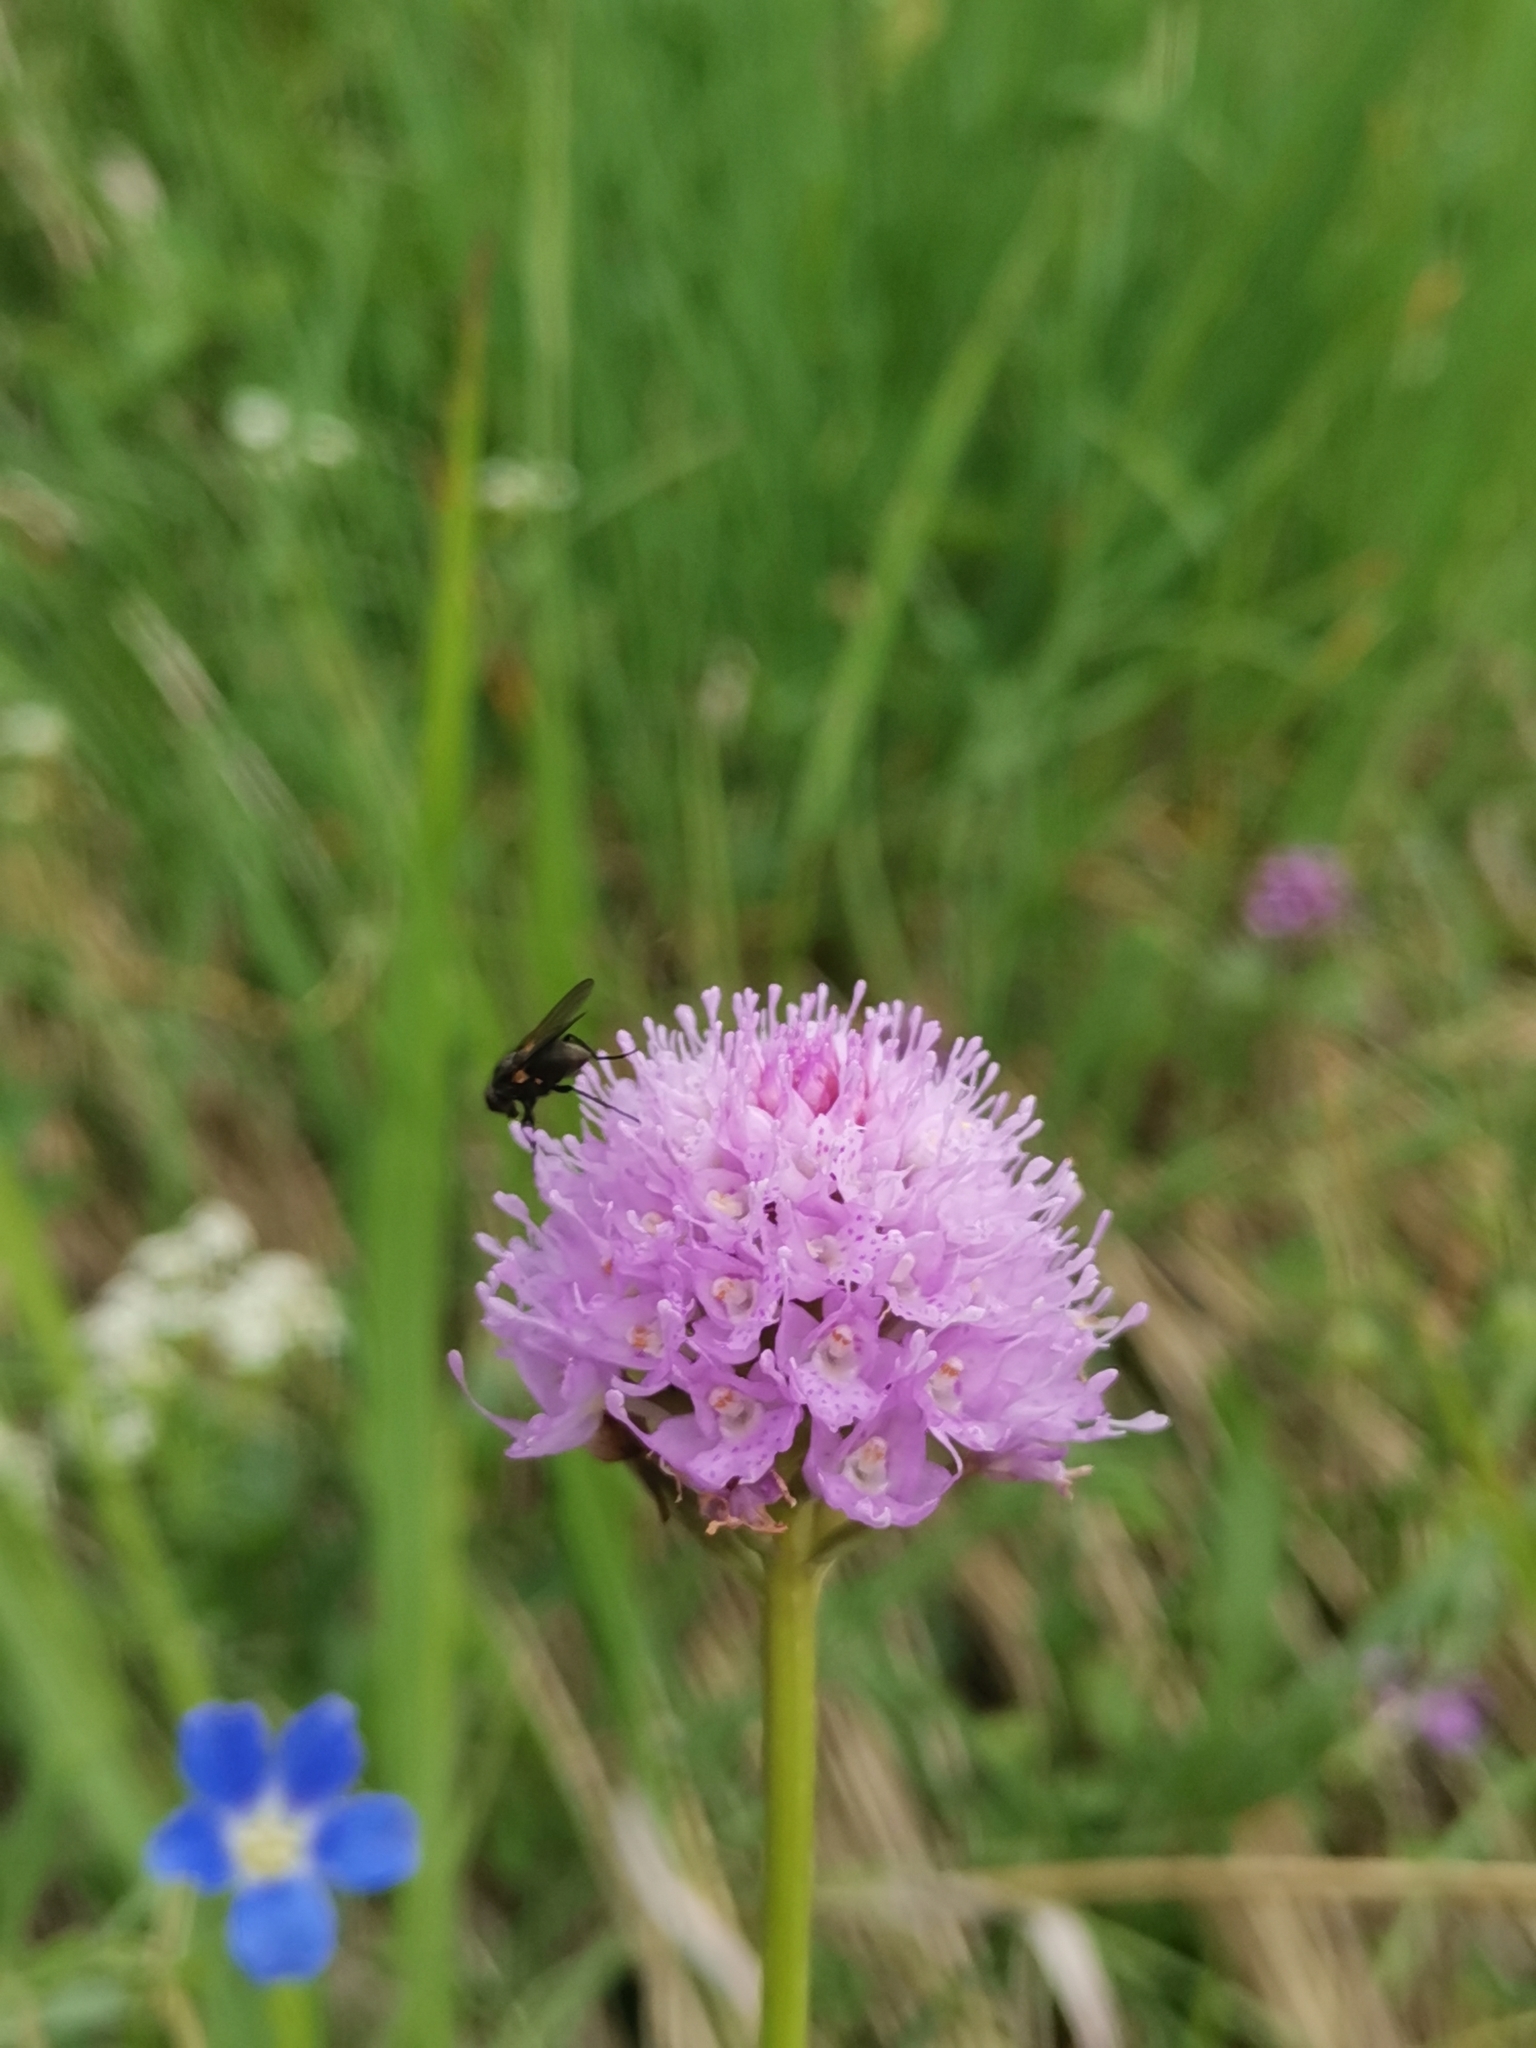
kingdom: Plantae
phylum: Tracheophyta
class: Liliopsida
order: Asparagales
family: Orchidaceae
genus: Traunsteinera
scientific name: Traunsteinera globosa
